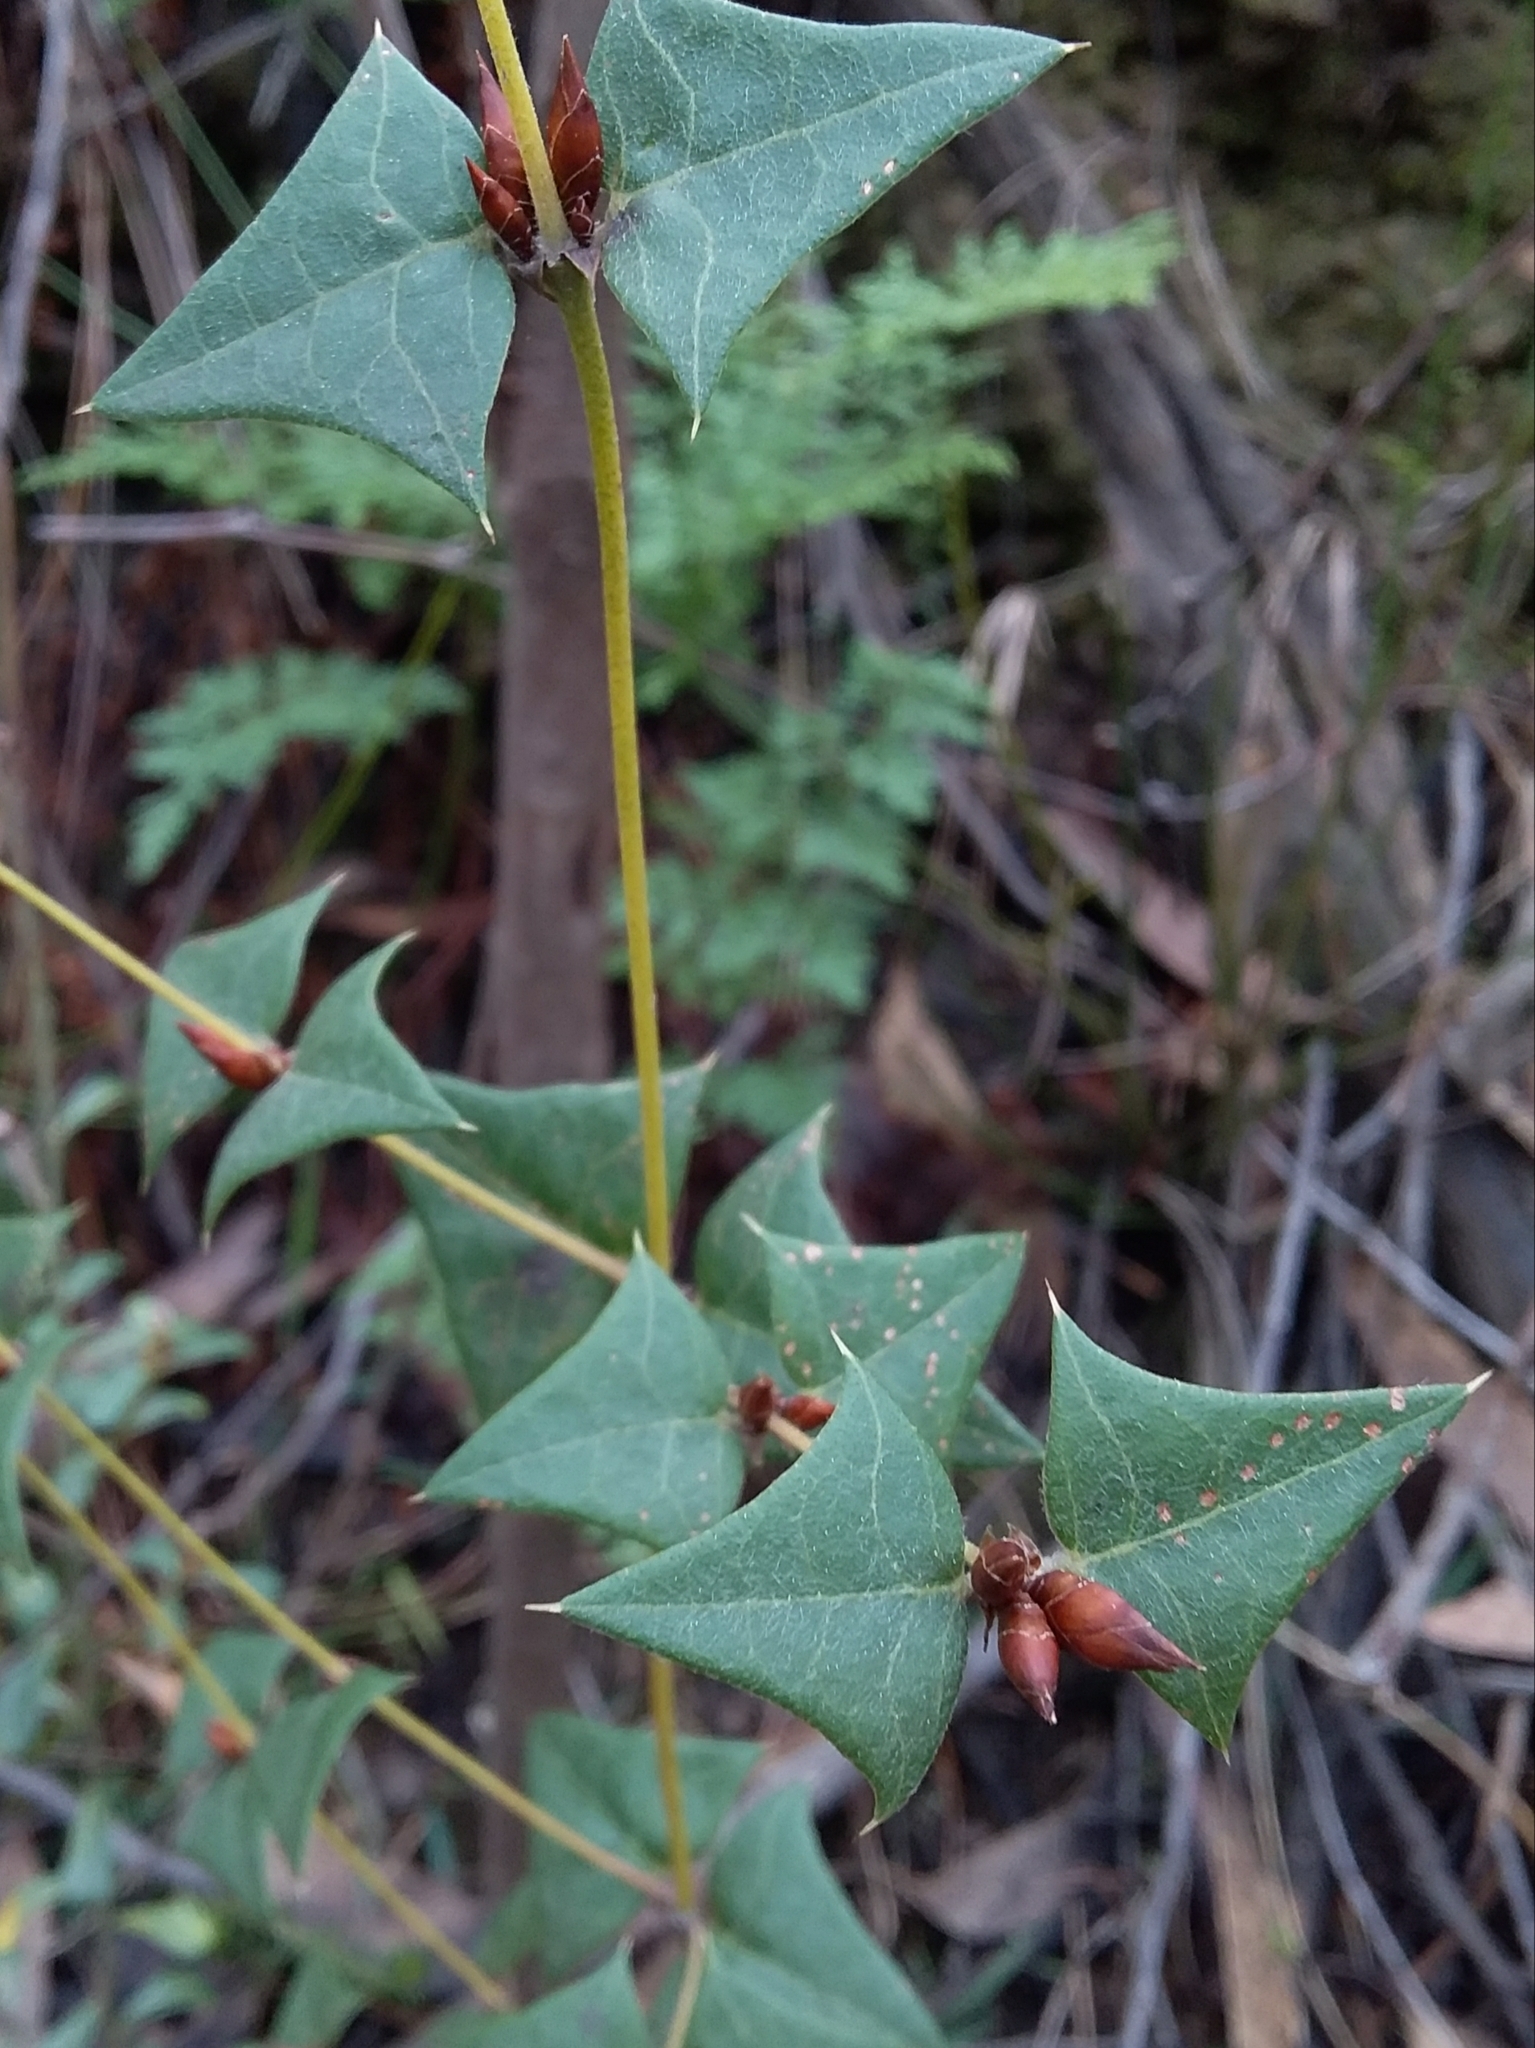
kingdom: Plantae
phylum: Tracheophyta
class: Magnoliopsida
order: Fabales
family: Fabaceae
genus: Platylobium
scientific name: Platylobium obtusangulum
